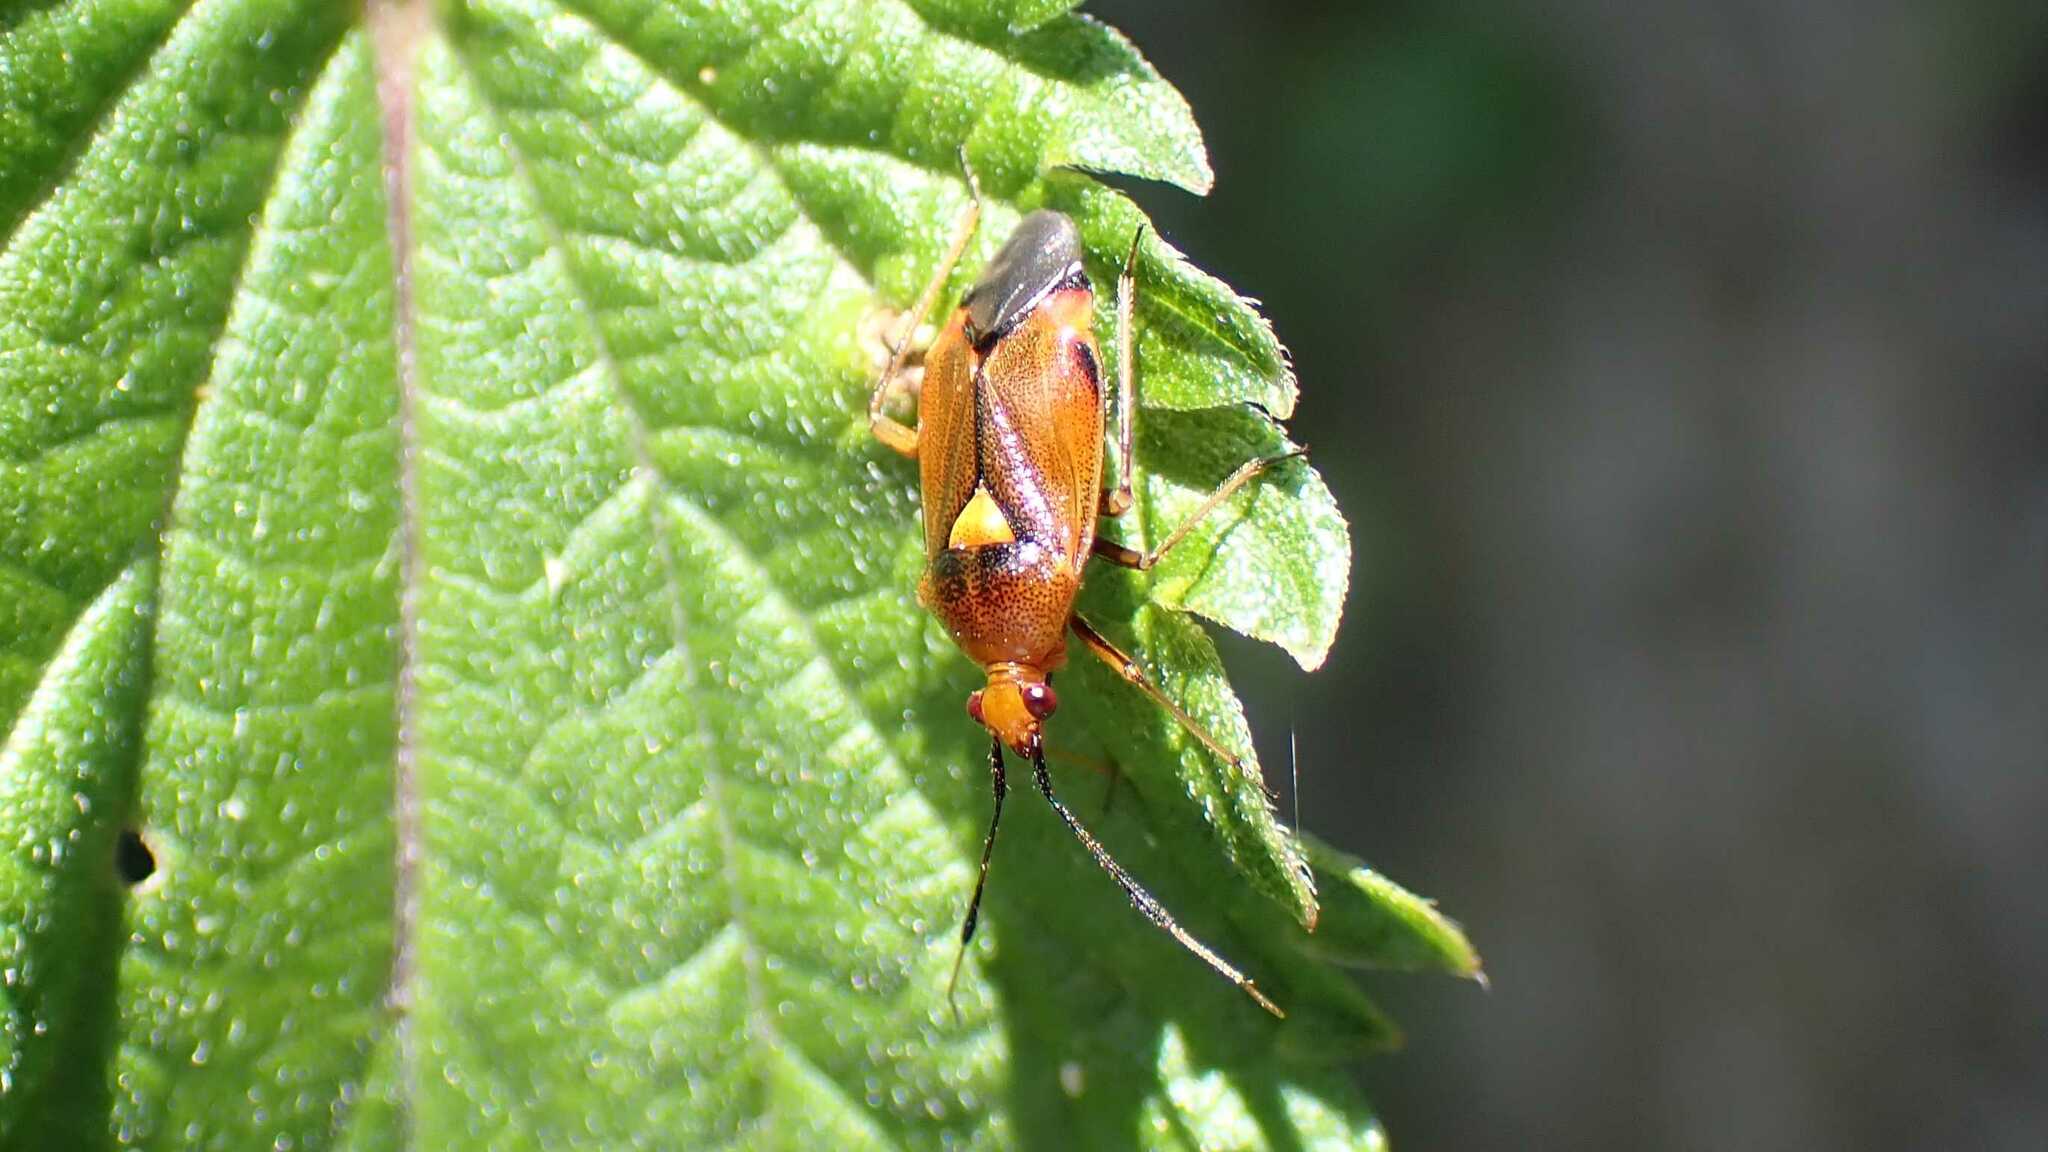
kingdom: Animalia
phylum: Arthropoda
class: Insecta
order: Hemiptera
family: Miridae
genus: Deraeocoris
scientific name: Deraeocoris ruber
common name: Plant bug
